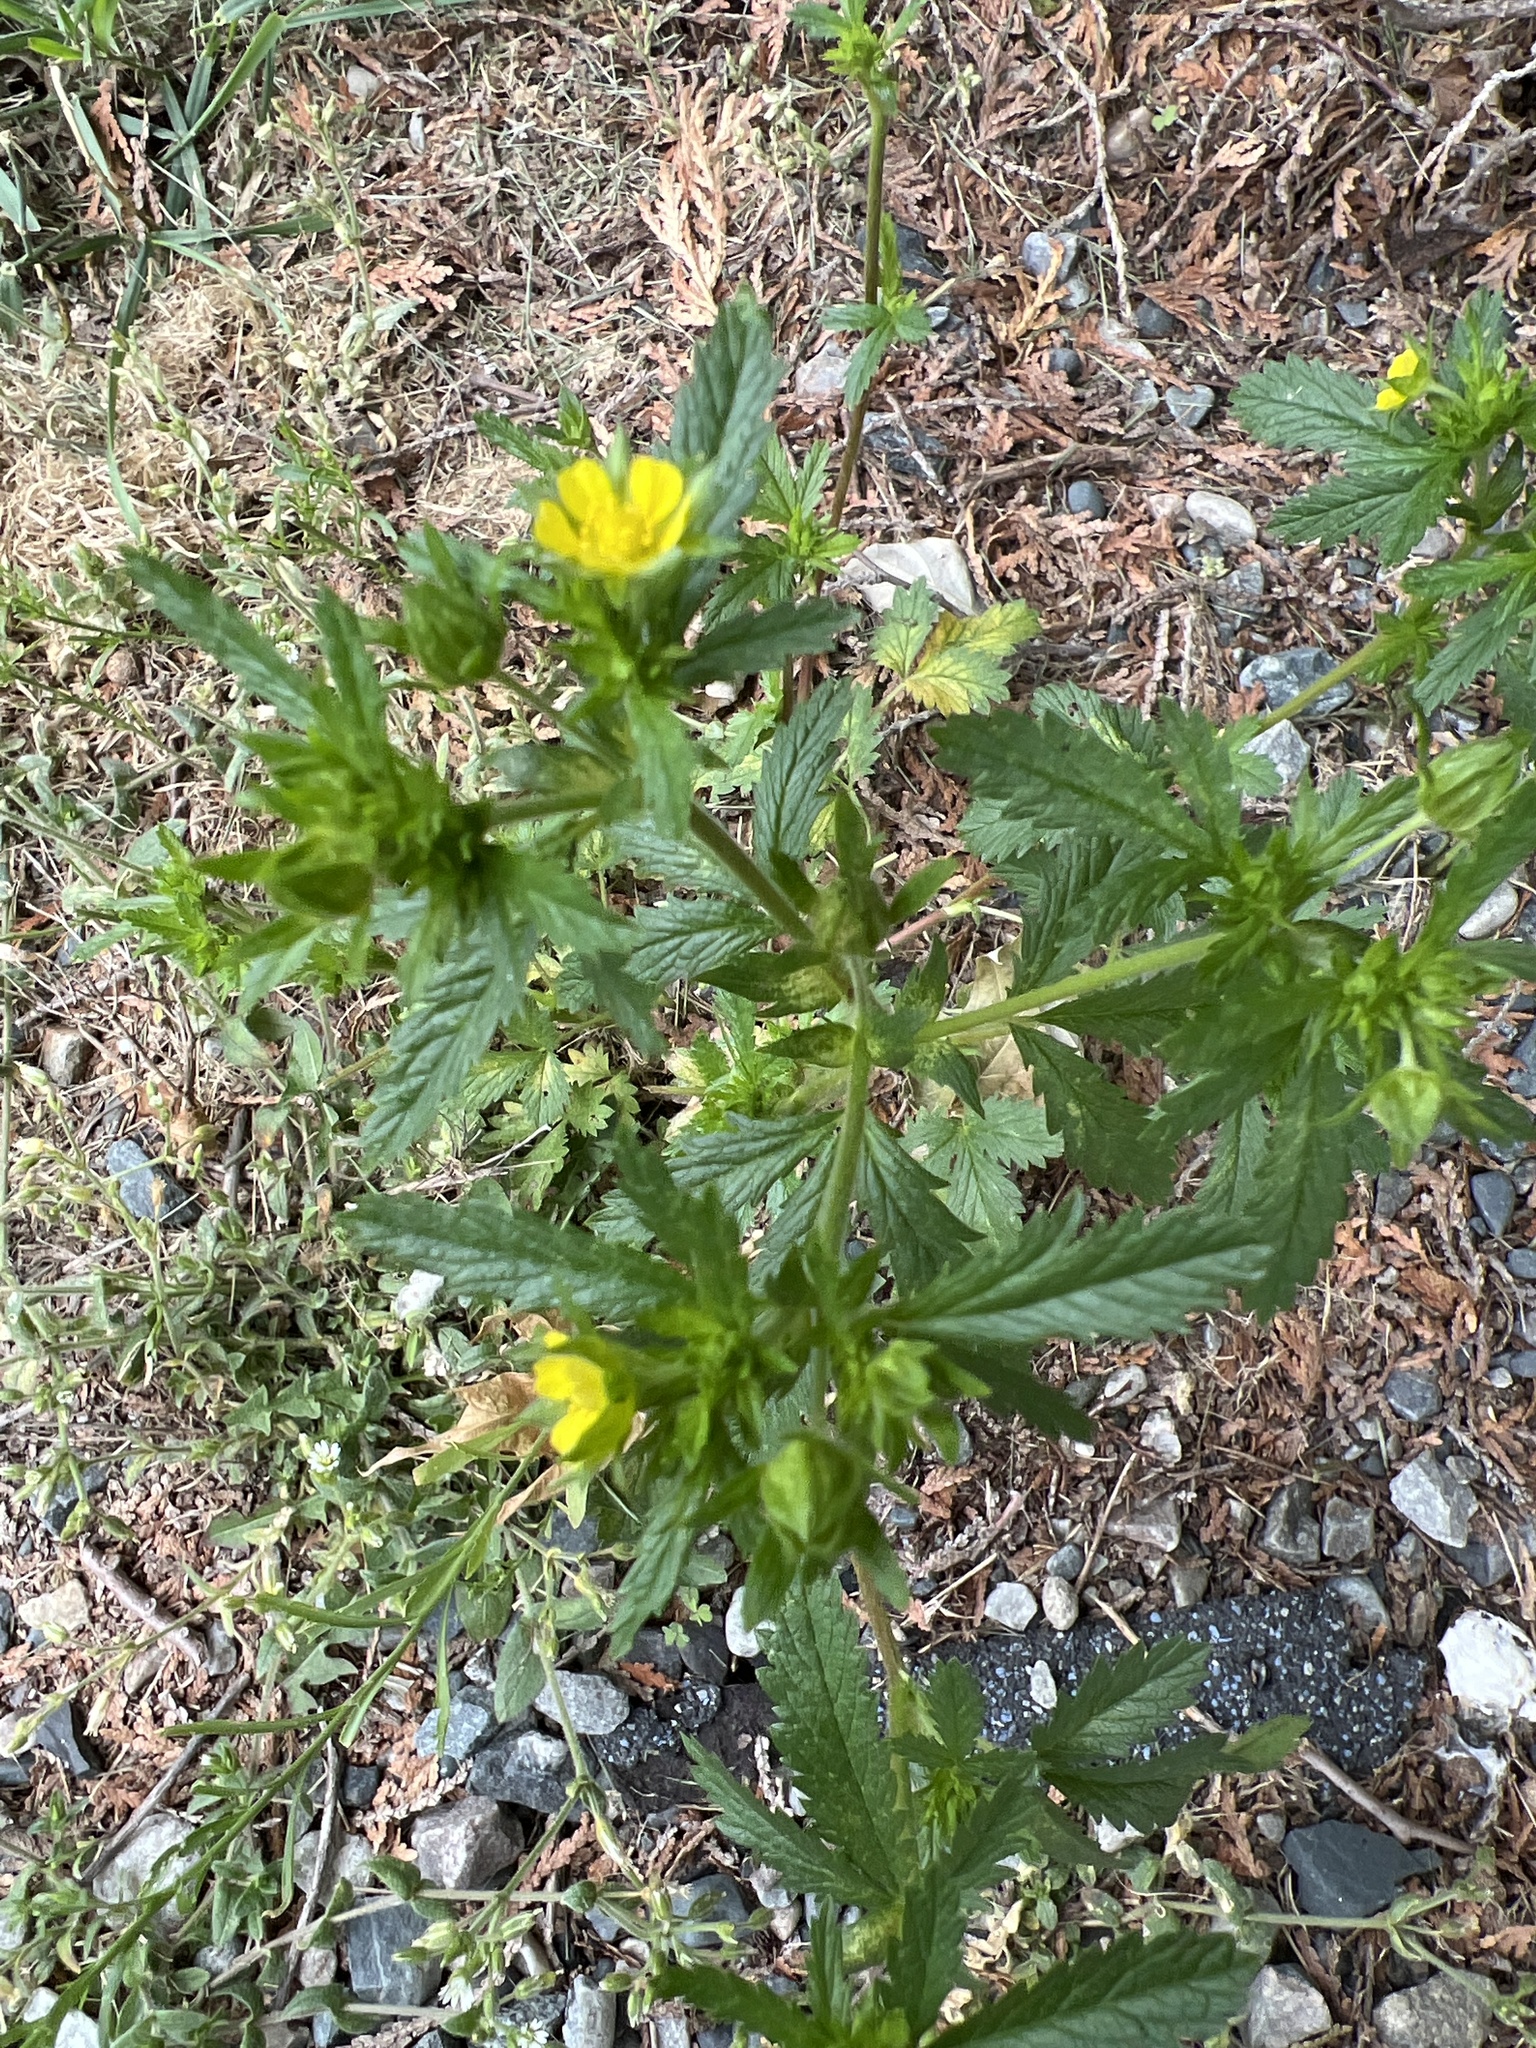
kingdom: Plantae
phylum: Tracheophyta
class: Magnoliopsida
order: Rosales
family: Rosaceae
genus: Potentilla
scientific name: Potentilla norvegica
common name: Ternate-leaved cinquefoil
